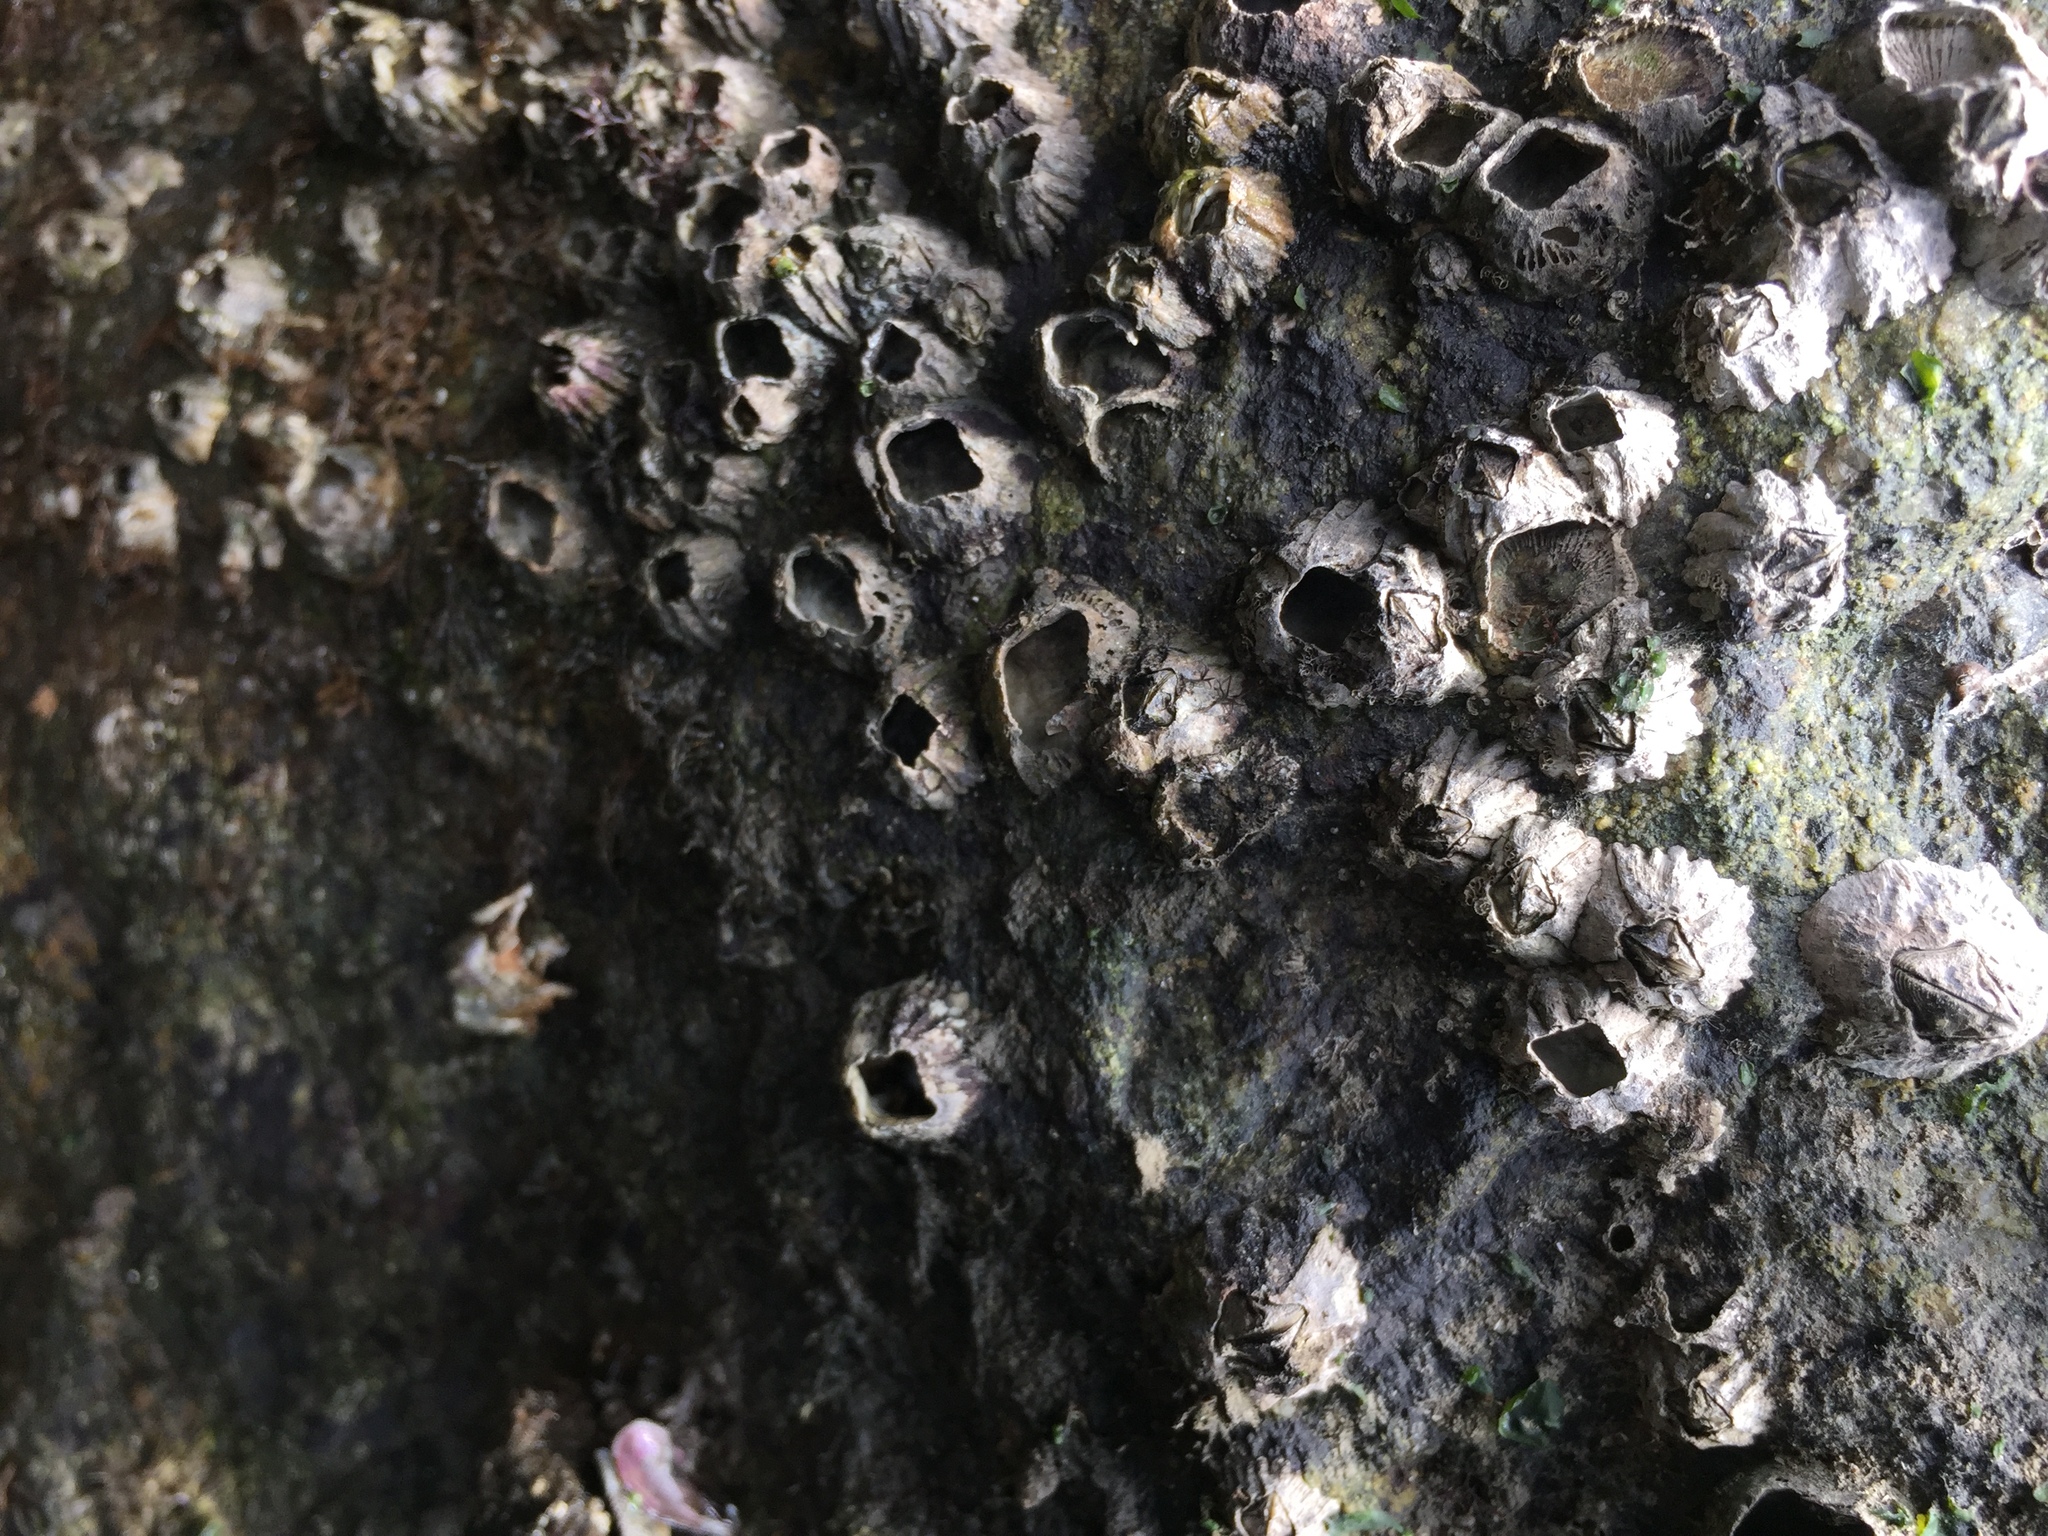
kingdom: Animalia
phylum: Arthropoda
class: Maxillopoda
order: Sessilia
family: Balanidae
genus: Balanus
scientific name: Balanus glandula
